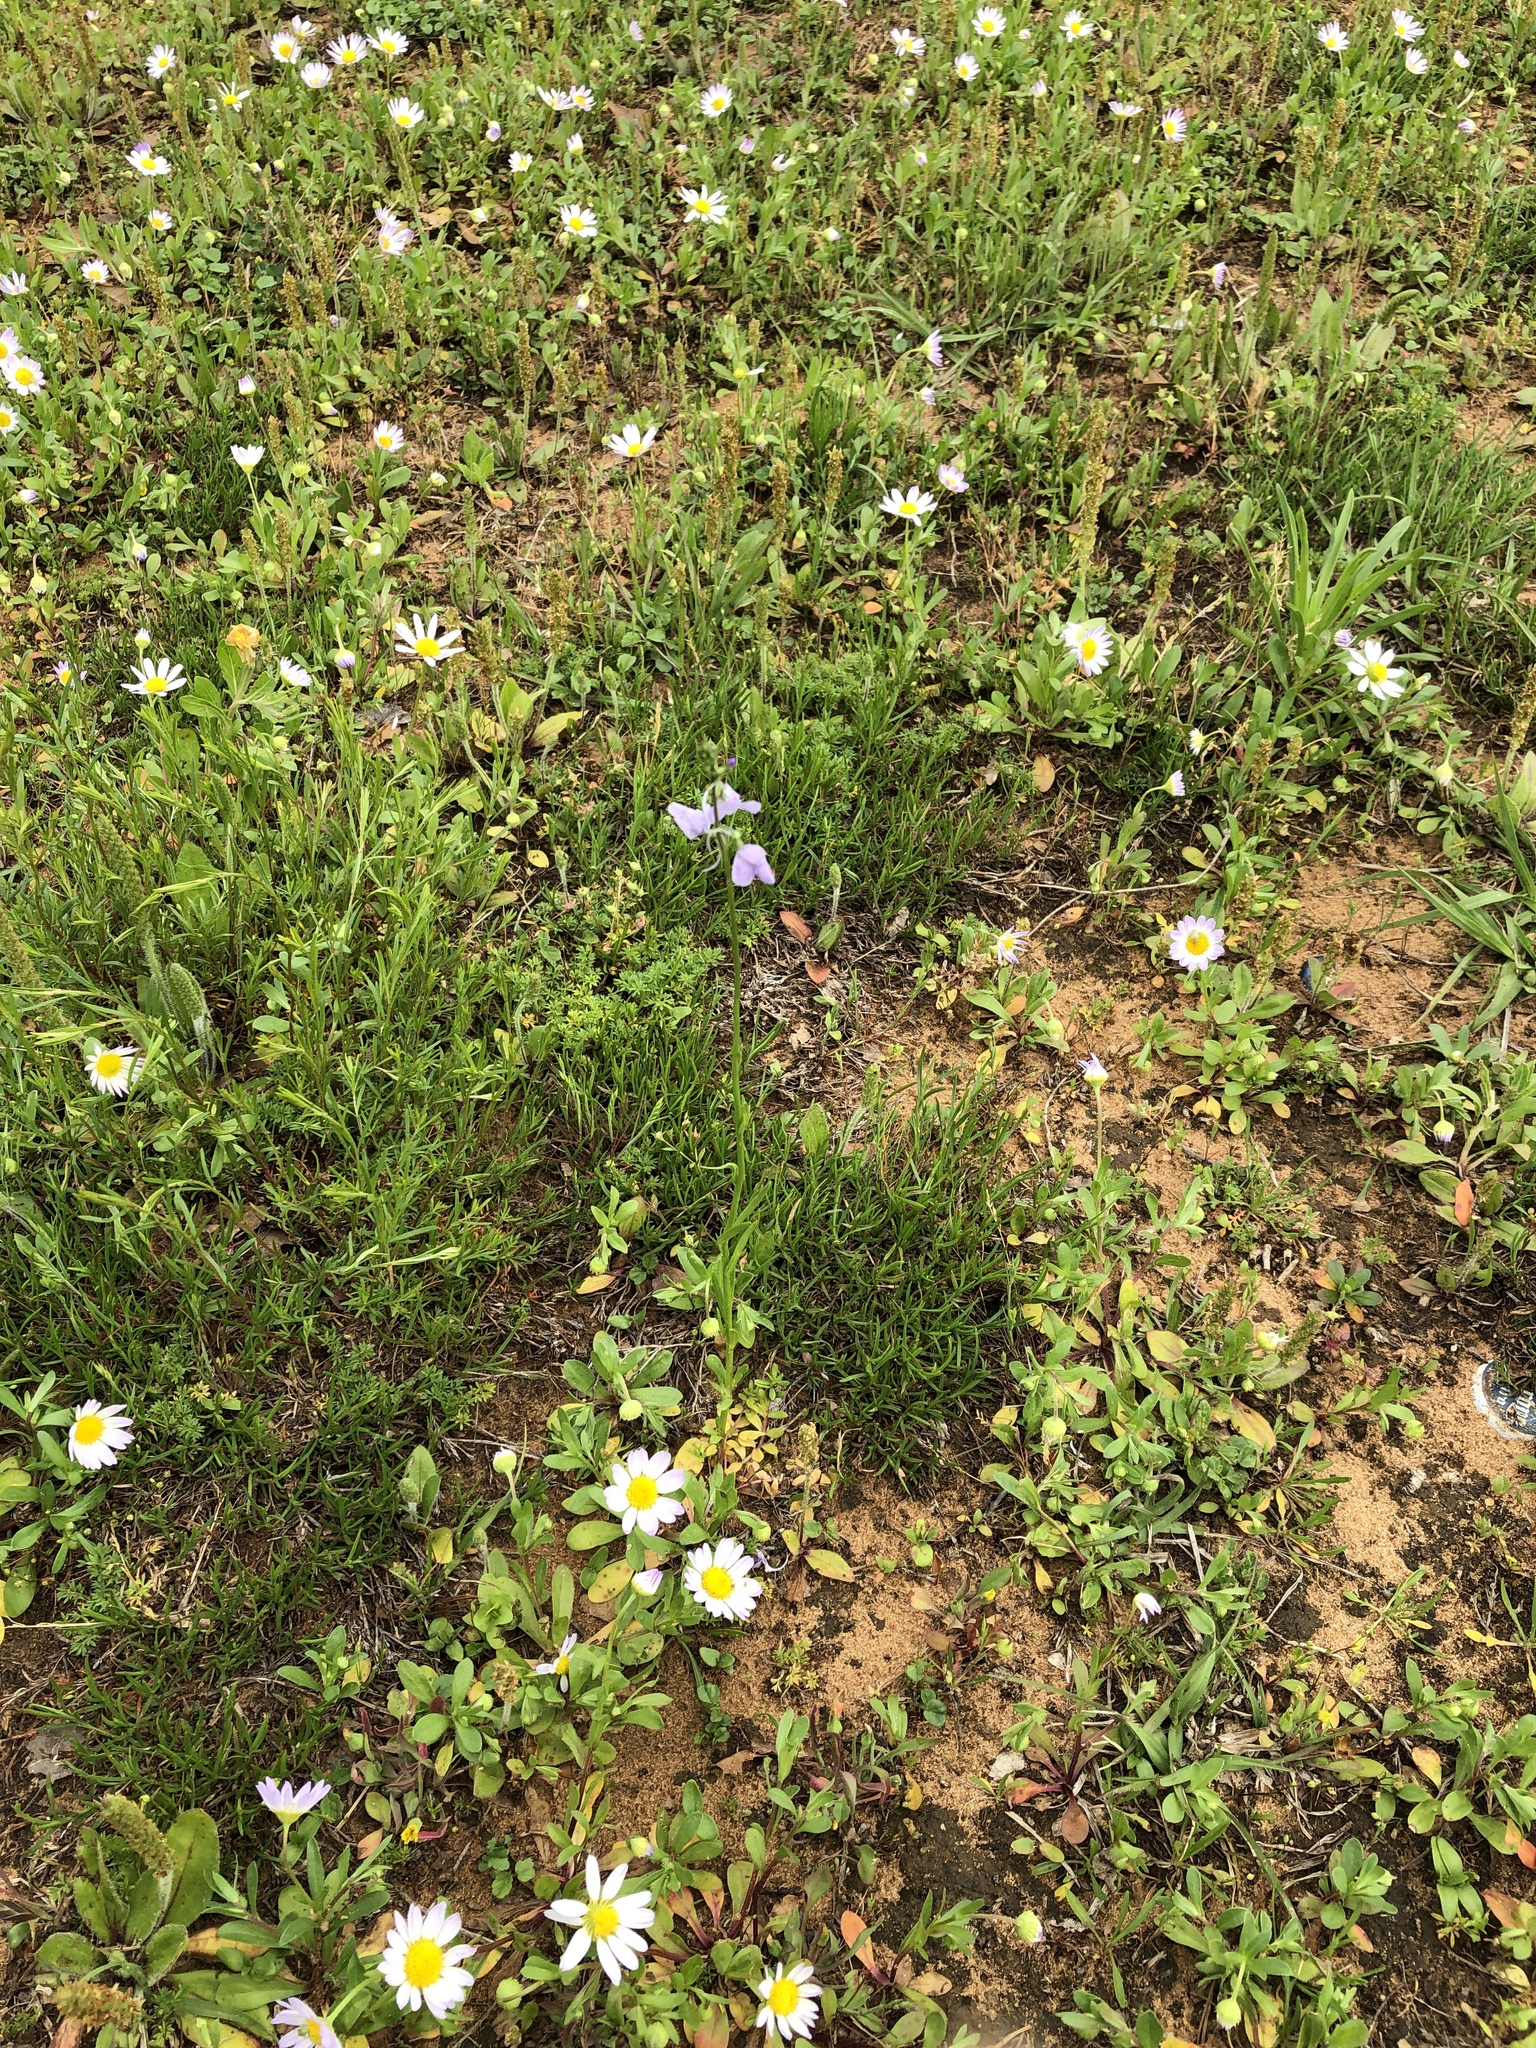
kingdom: Plantae
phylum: Tracheophyta
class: Magnoliopsida
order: Lamiales
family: Plantaginaceae
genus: Nuttallanthus
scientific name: Nuttallanthus texanus
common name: Texas toadflax
